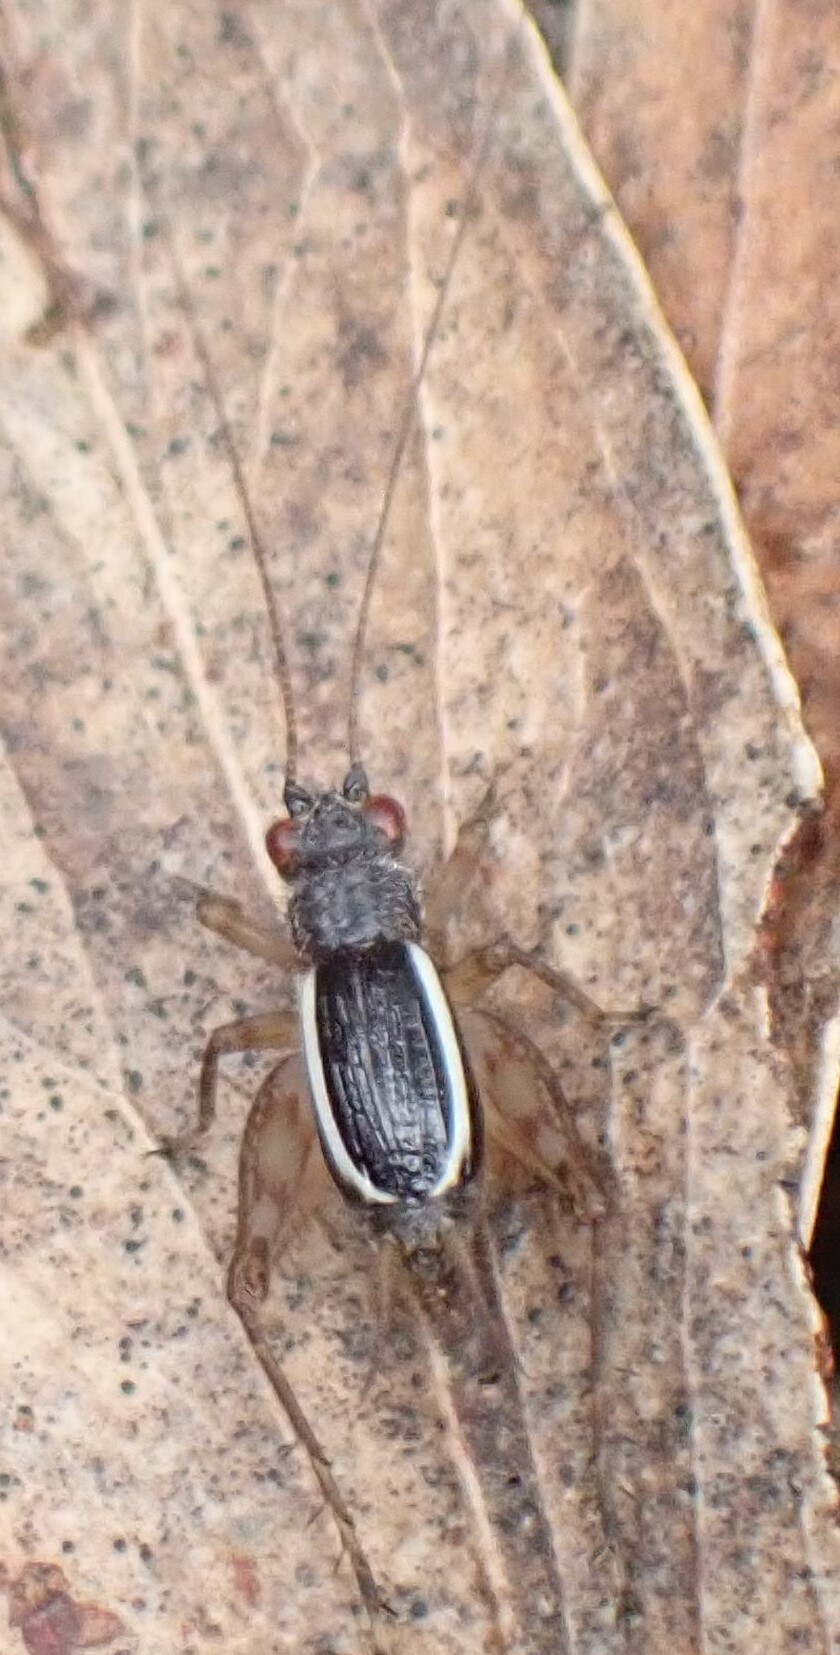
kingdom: Animalia
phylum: Arthropoda
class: Insecta
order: Orthoptera
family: Trigonidiidae
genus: Trigonidium
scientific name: Trigonidium albovittata
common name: Handsome trig
